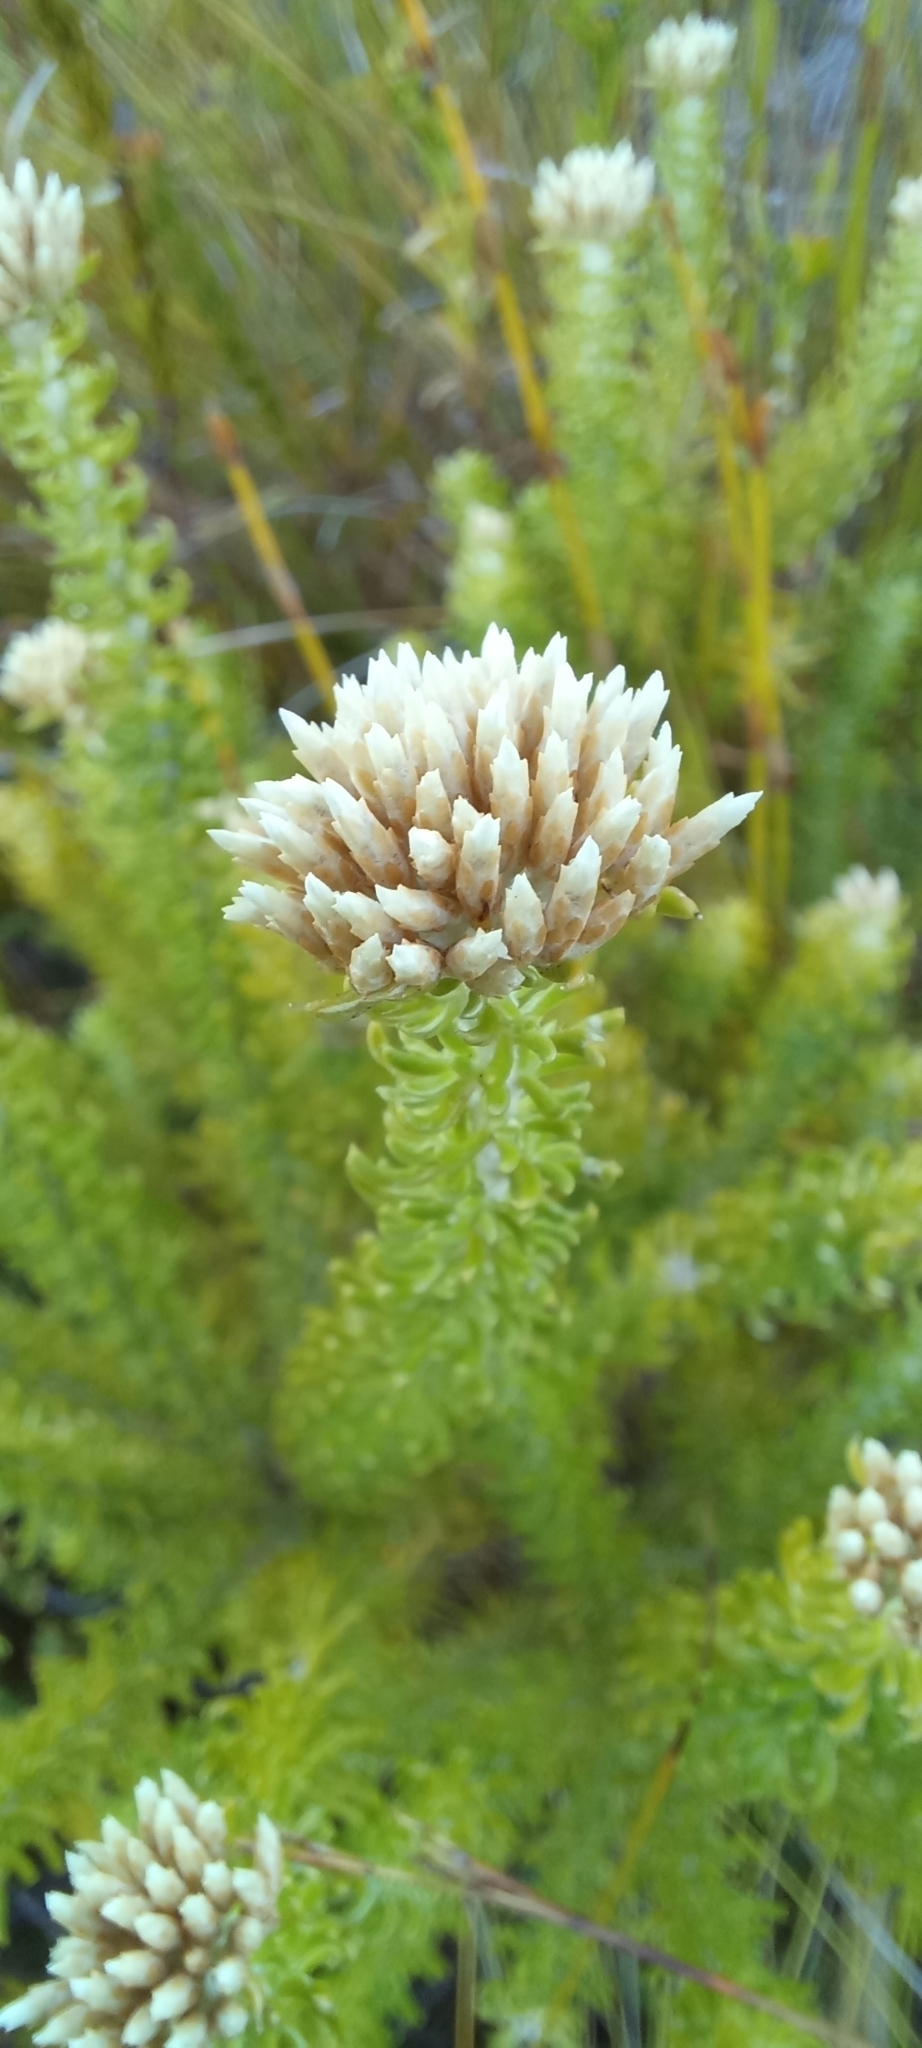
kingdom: Plantae
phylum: Tracheophyta
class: Magnoliopsida
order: Asterales
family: Asteraceae
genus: Metalasia
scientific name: Metalasia muricata
